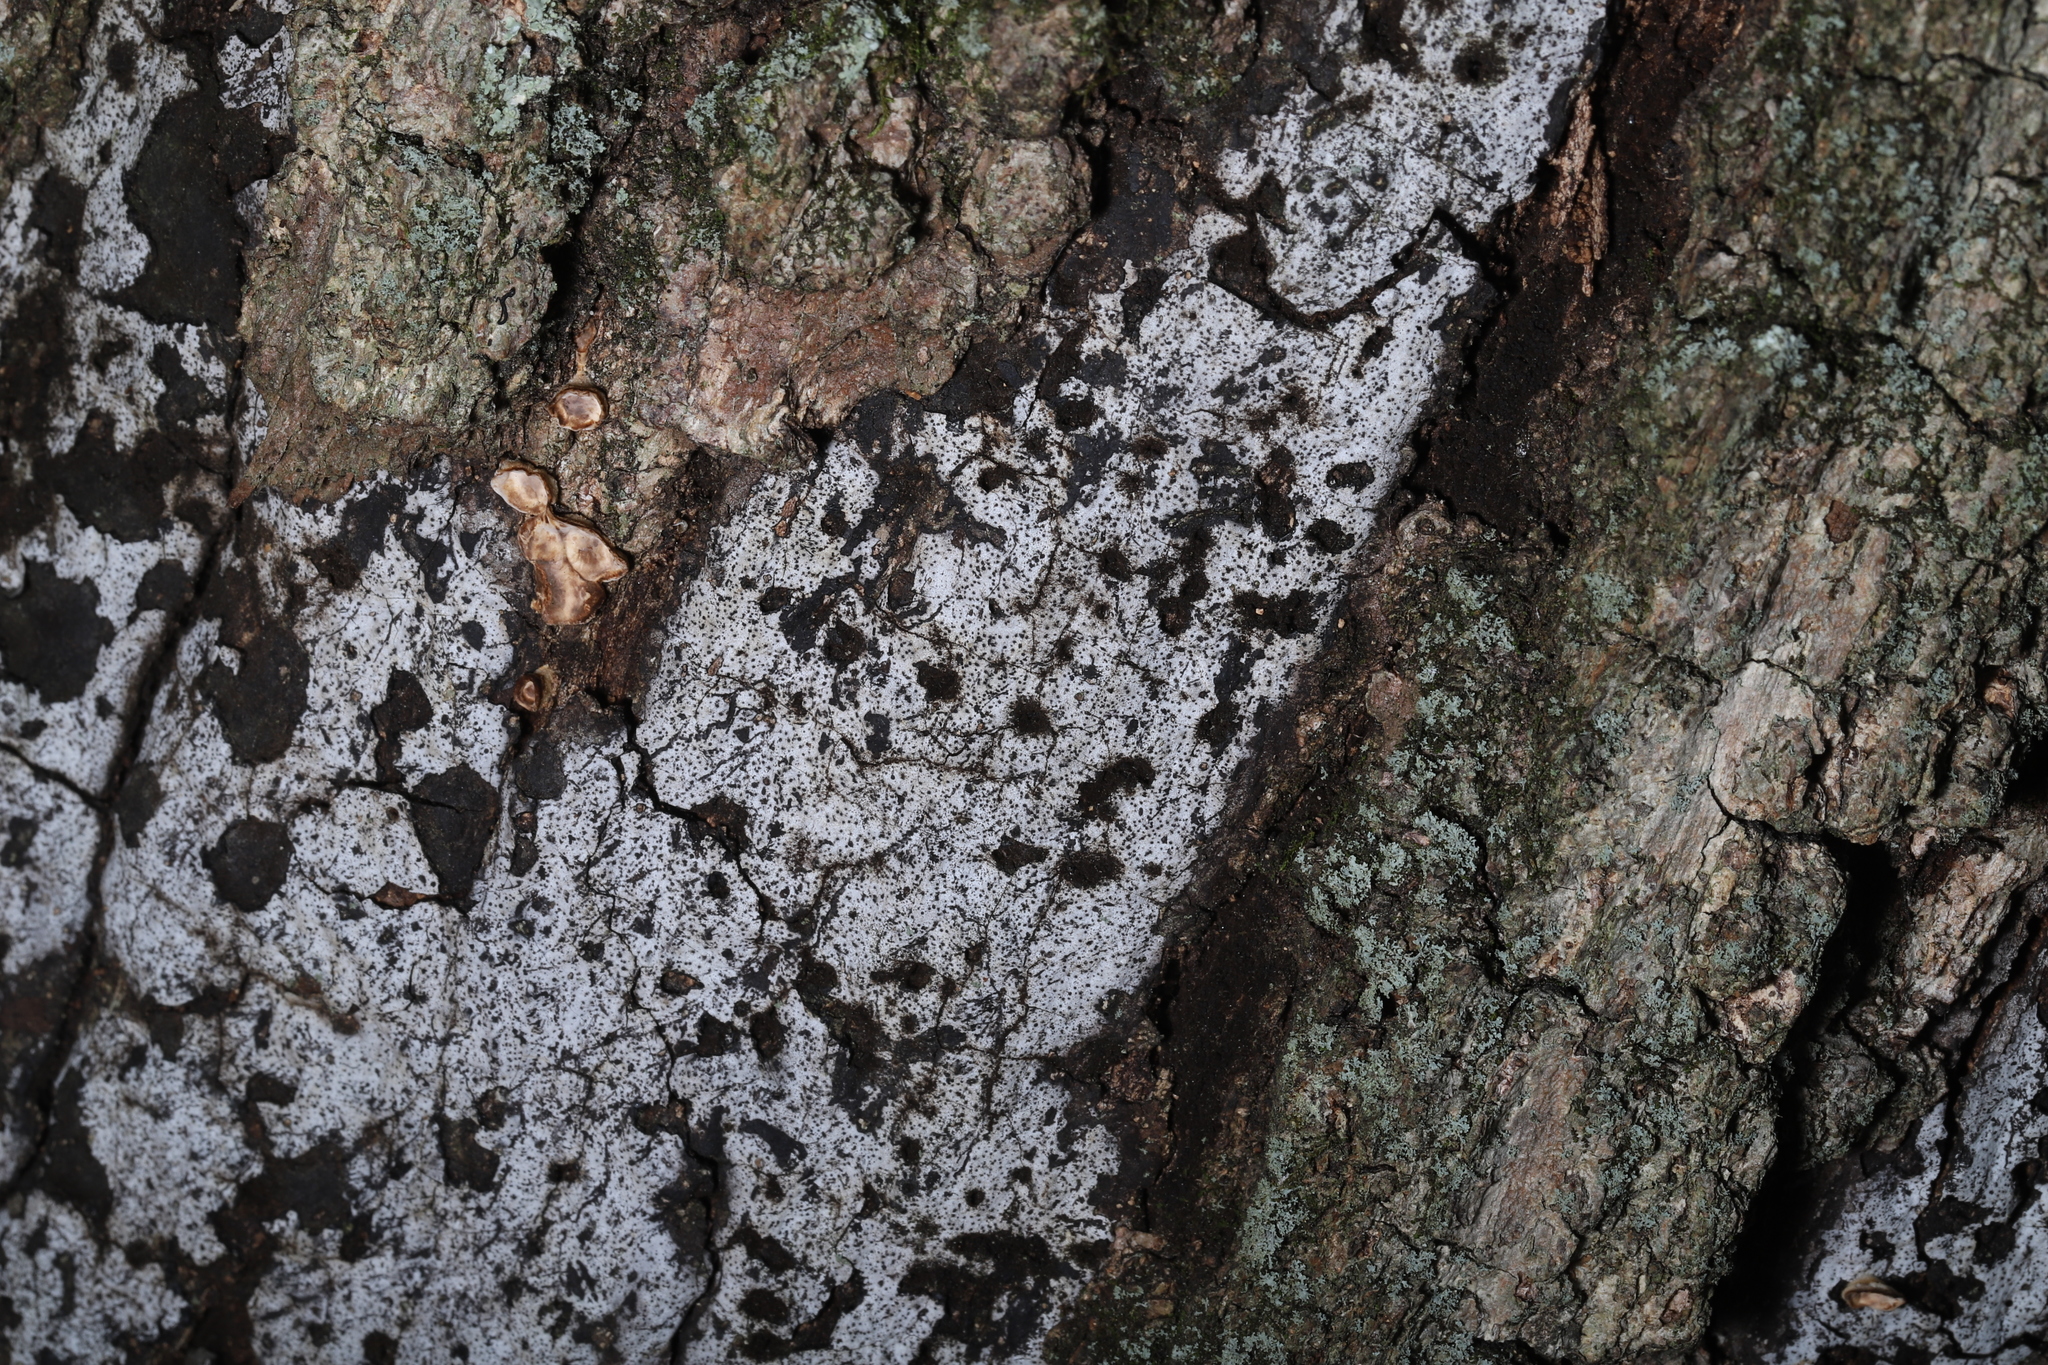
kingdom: Fungi
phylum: Ascomycota
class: Sordariomycetes
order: Xylariales
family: Graphostromataceae
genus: Biscogniauxia
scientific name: Biscogniauxia atropunctata
